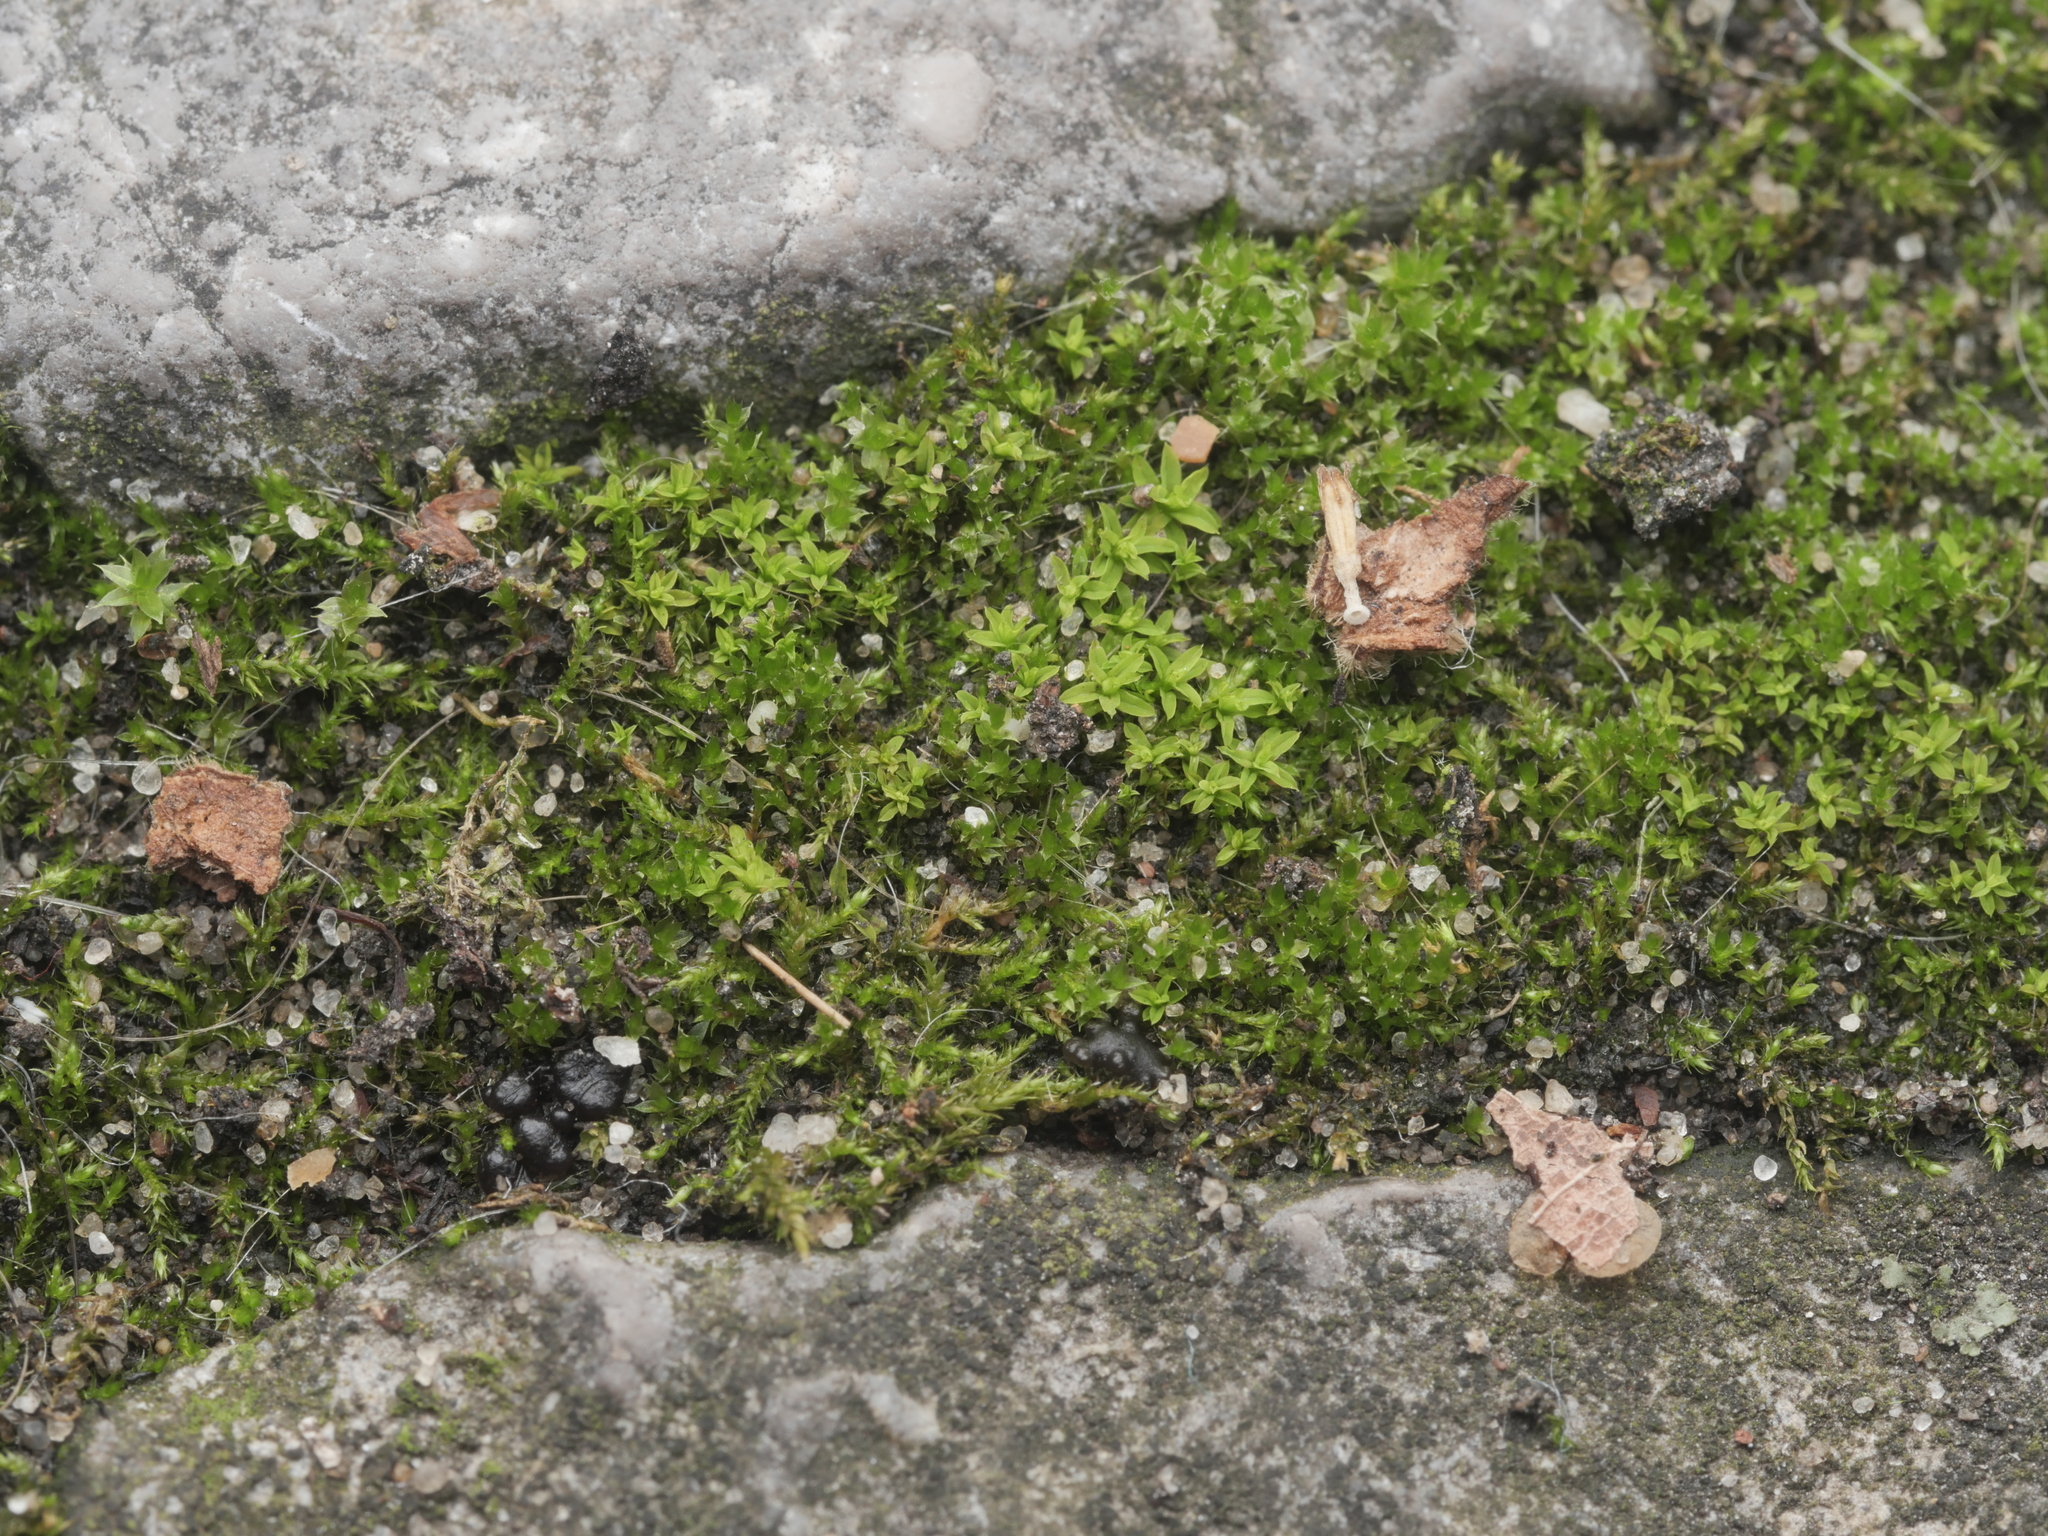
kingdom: Plantae
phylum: Bryophyta
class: Bryopsida
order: Pottiales
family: Pottiaceae
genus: Barbula
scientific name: Barbula unguiculata
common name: Prickly beard moss
